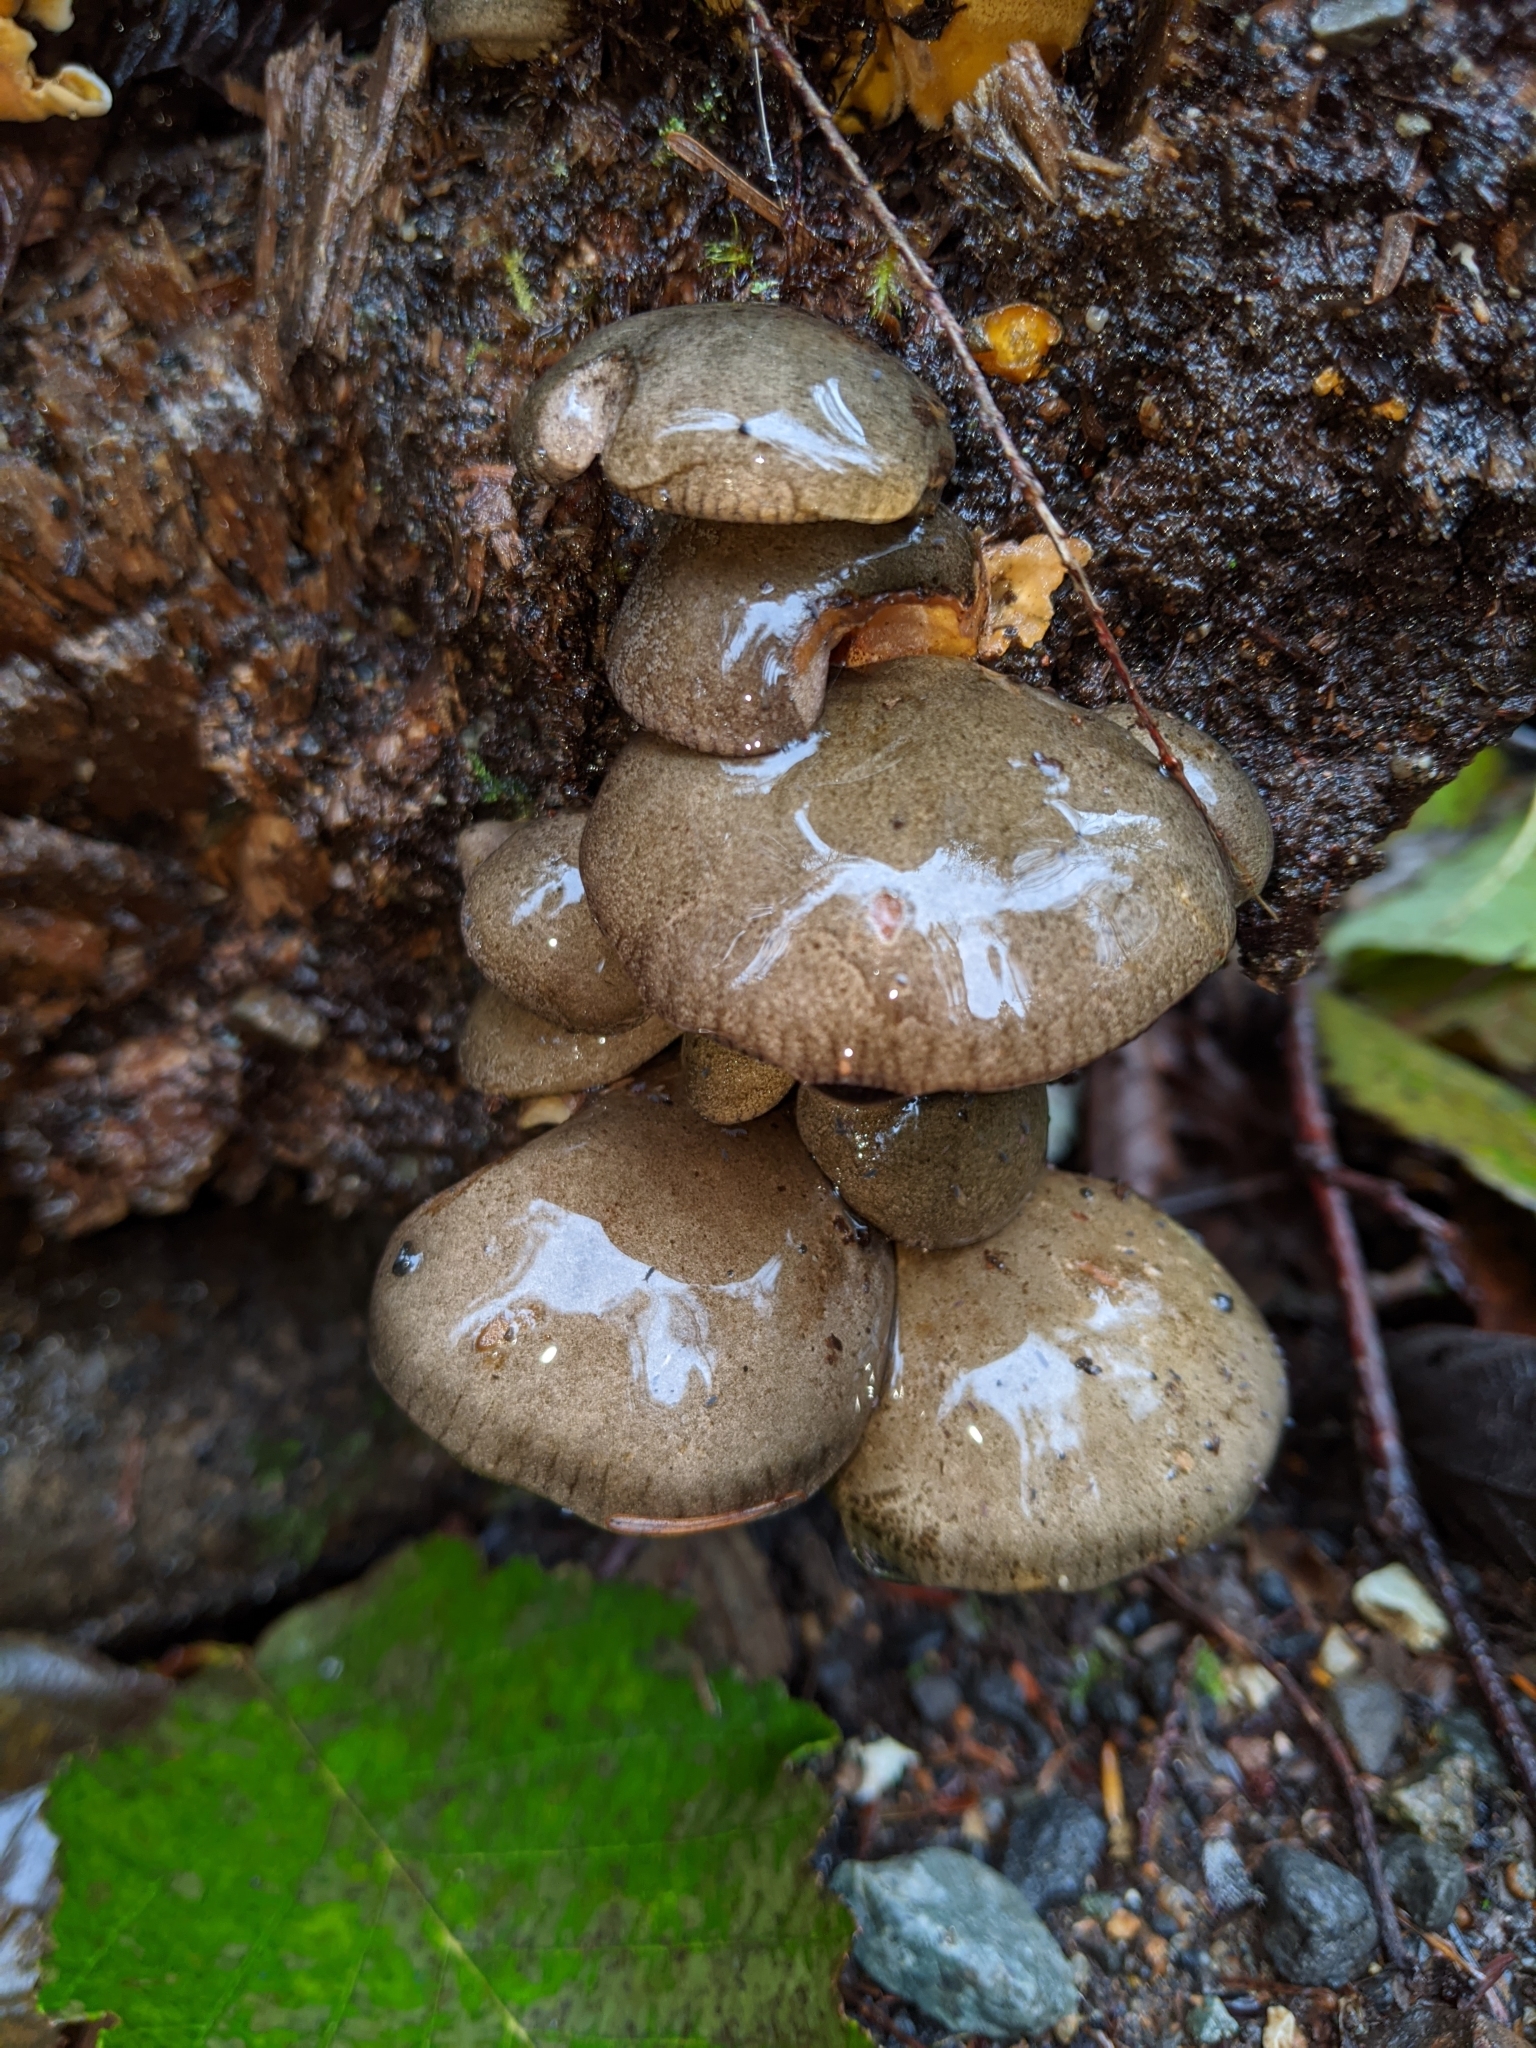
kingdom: Fungi
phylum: Basidiomycota
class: Agaricomycetes
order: Agaricales
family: Sarcomyxaceae
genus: Sarcomyxa
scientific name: Sarcomyxa serotina
